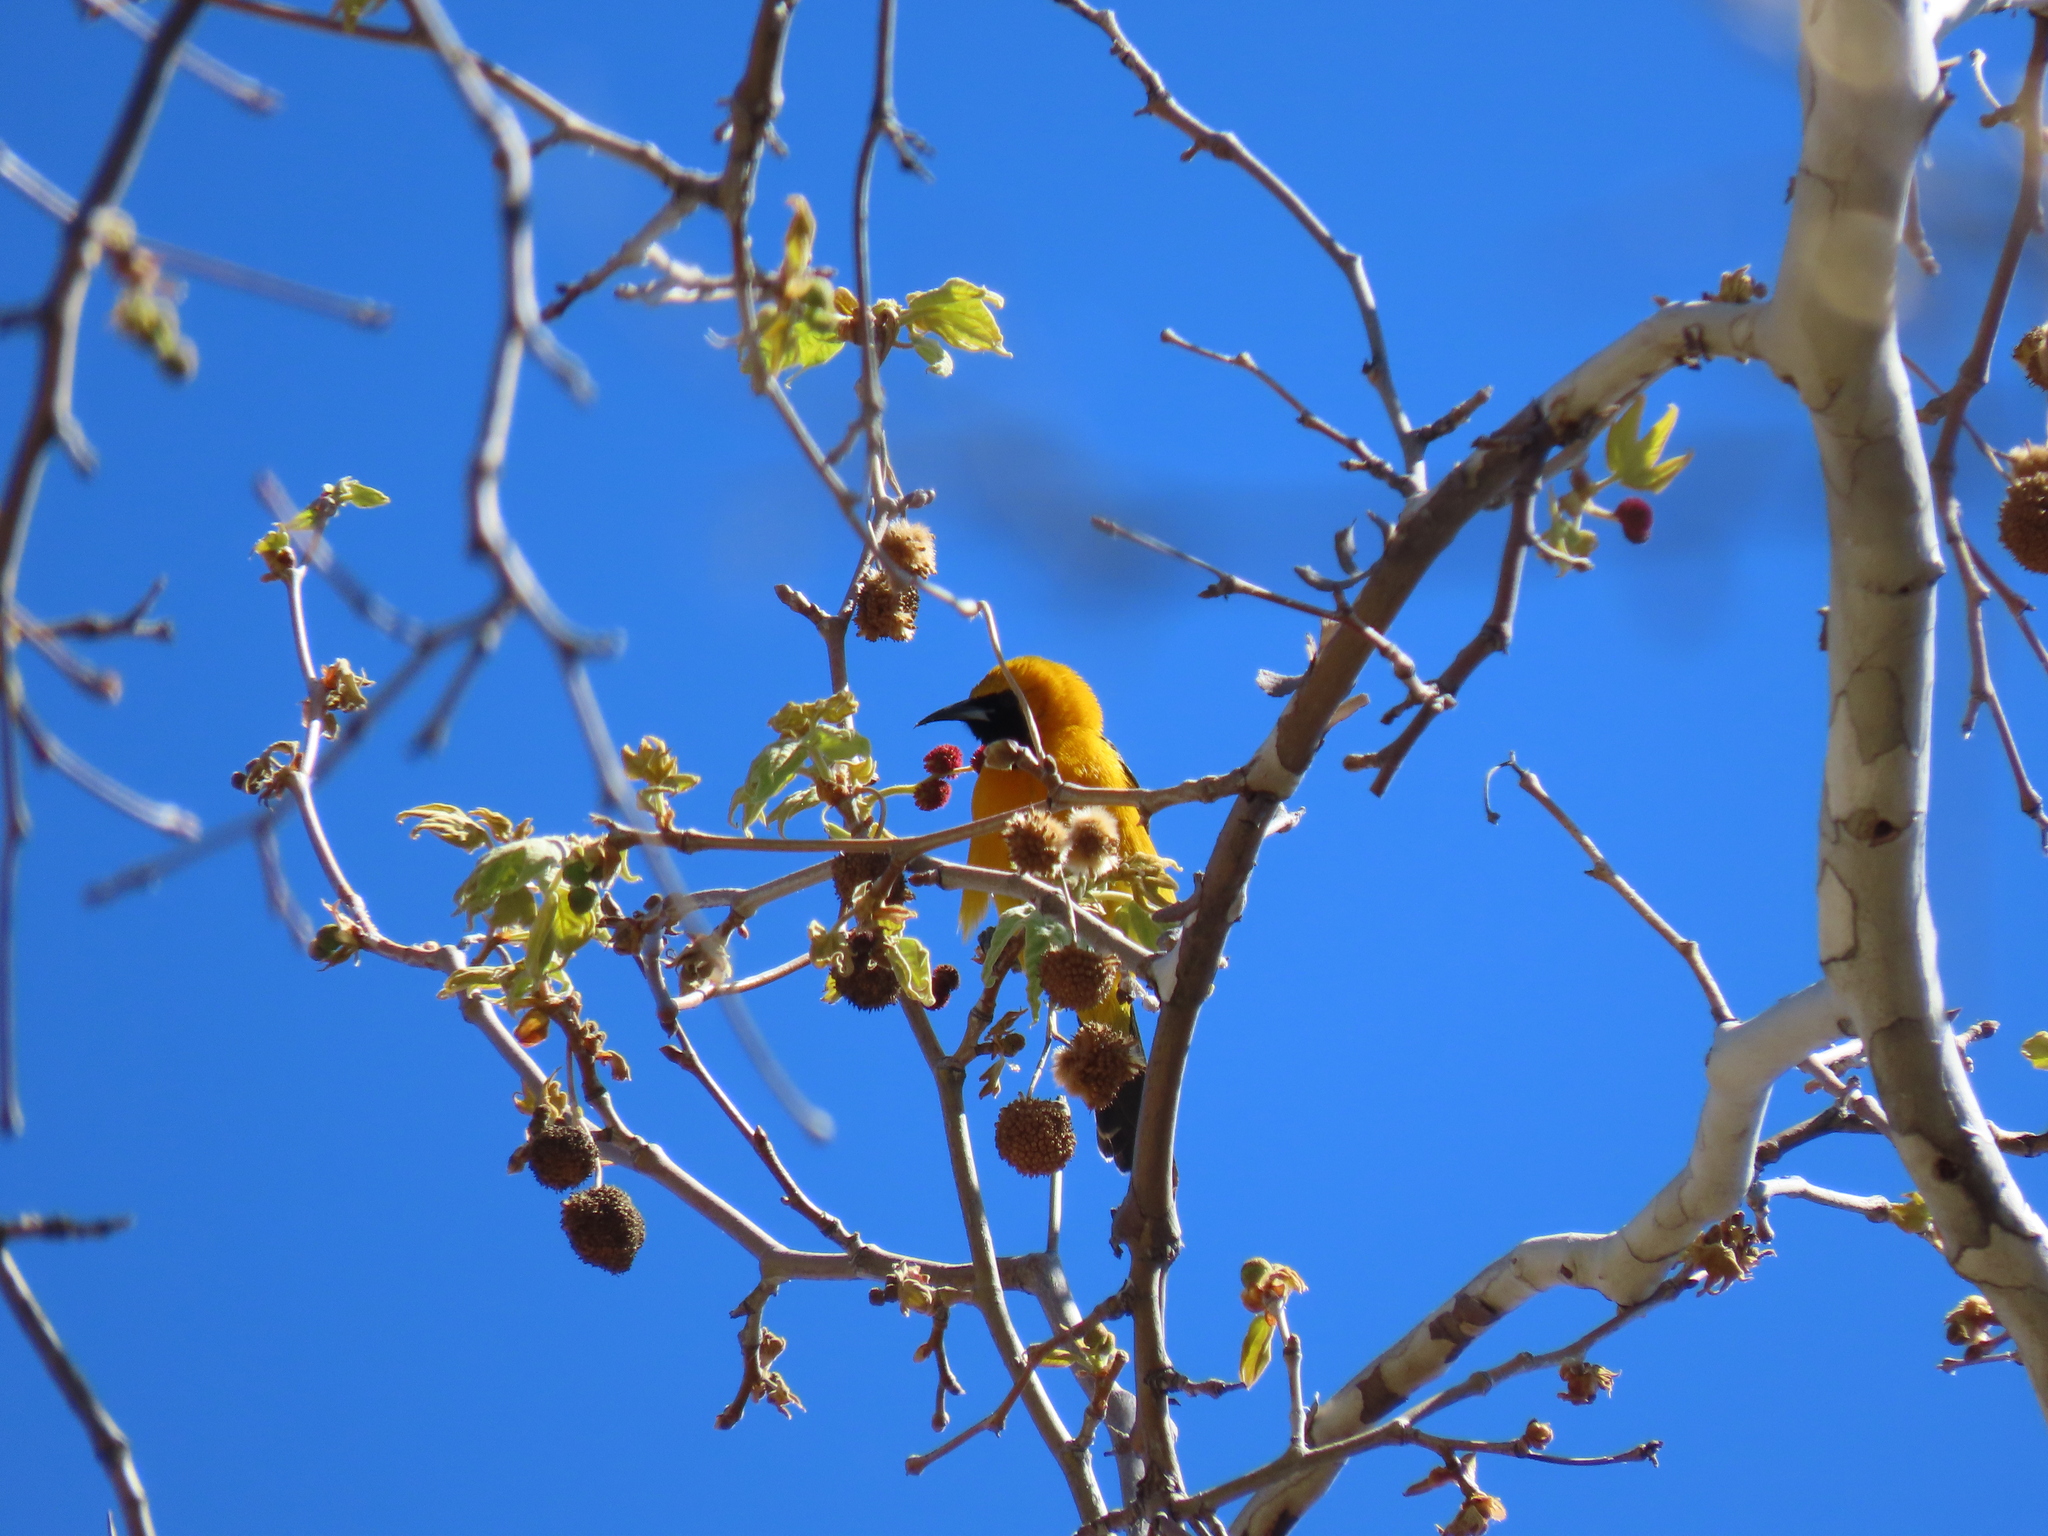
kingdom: Animalia
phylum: Chordata
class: Aves
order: Passeriformes
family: Icteridae
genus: Icterus
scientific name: Icterus cucullatus
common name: Hooded oriole
